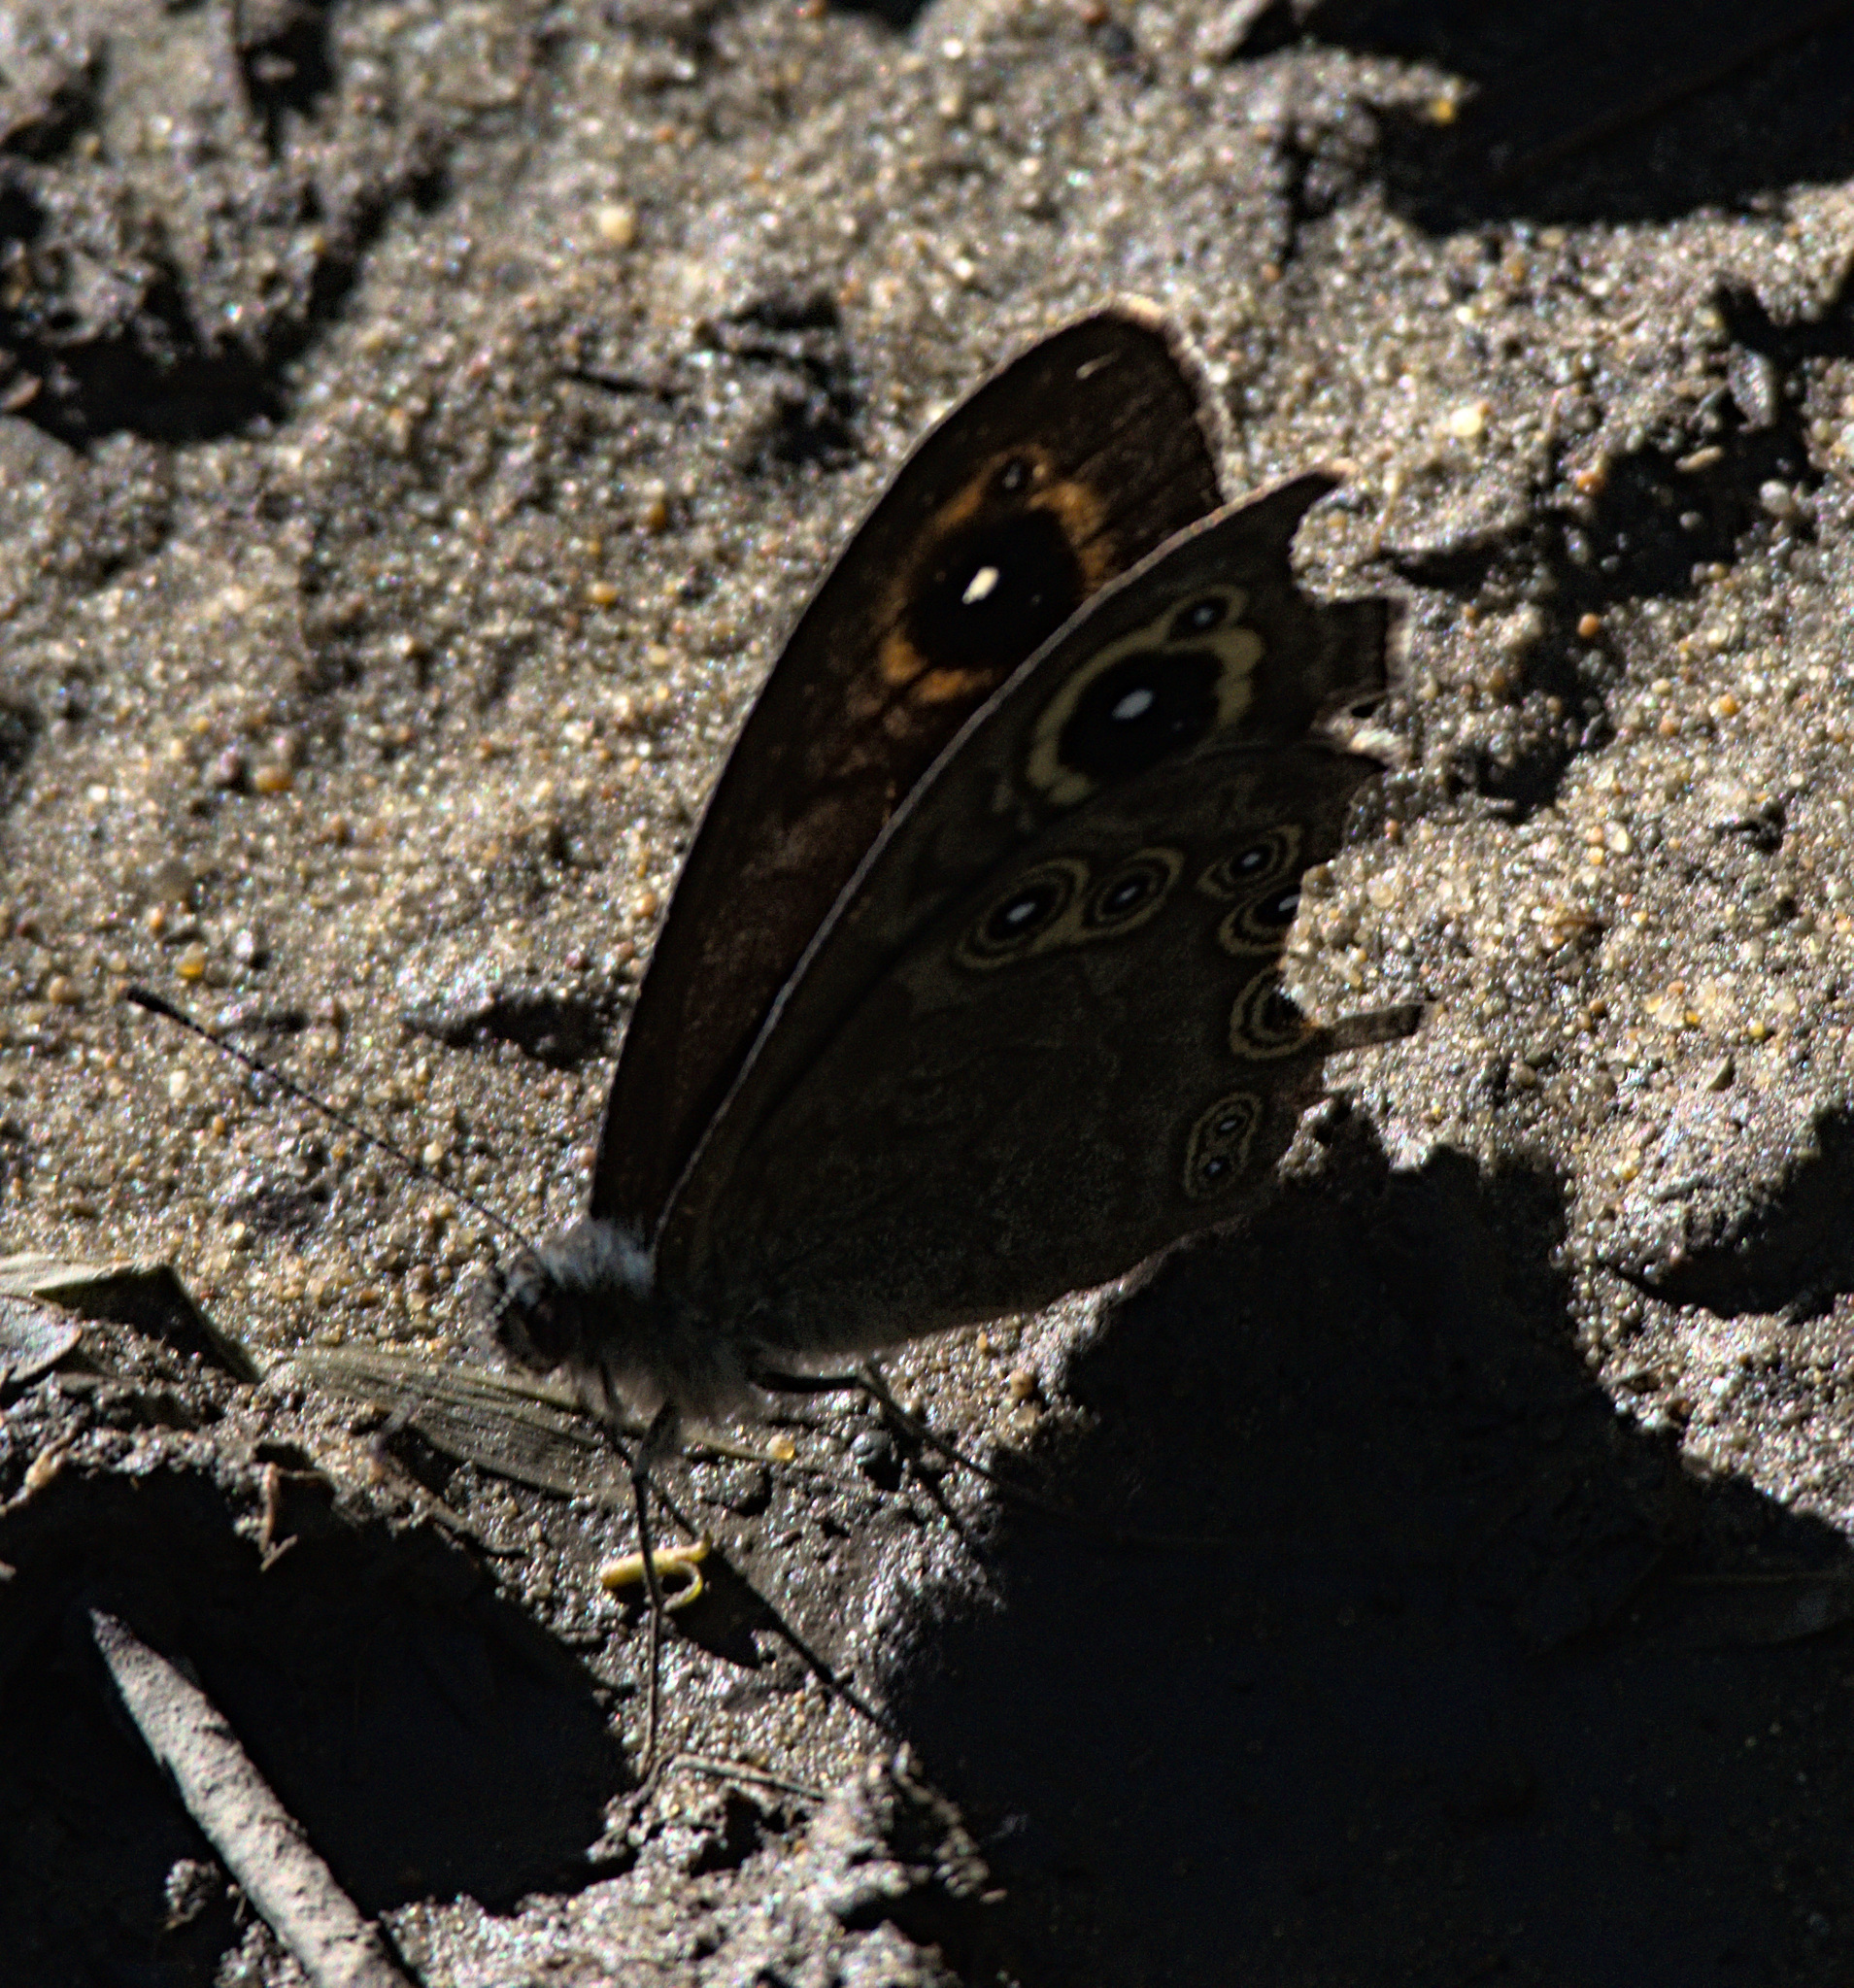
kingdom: Animalia
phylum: Arthropoda
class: Insecta
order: Lepidoptera
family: Nymphalidae
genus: Pararge
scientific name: Pararge petropolitana
